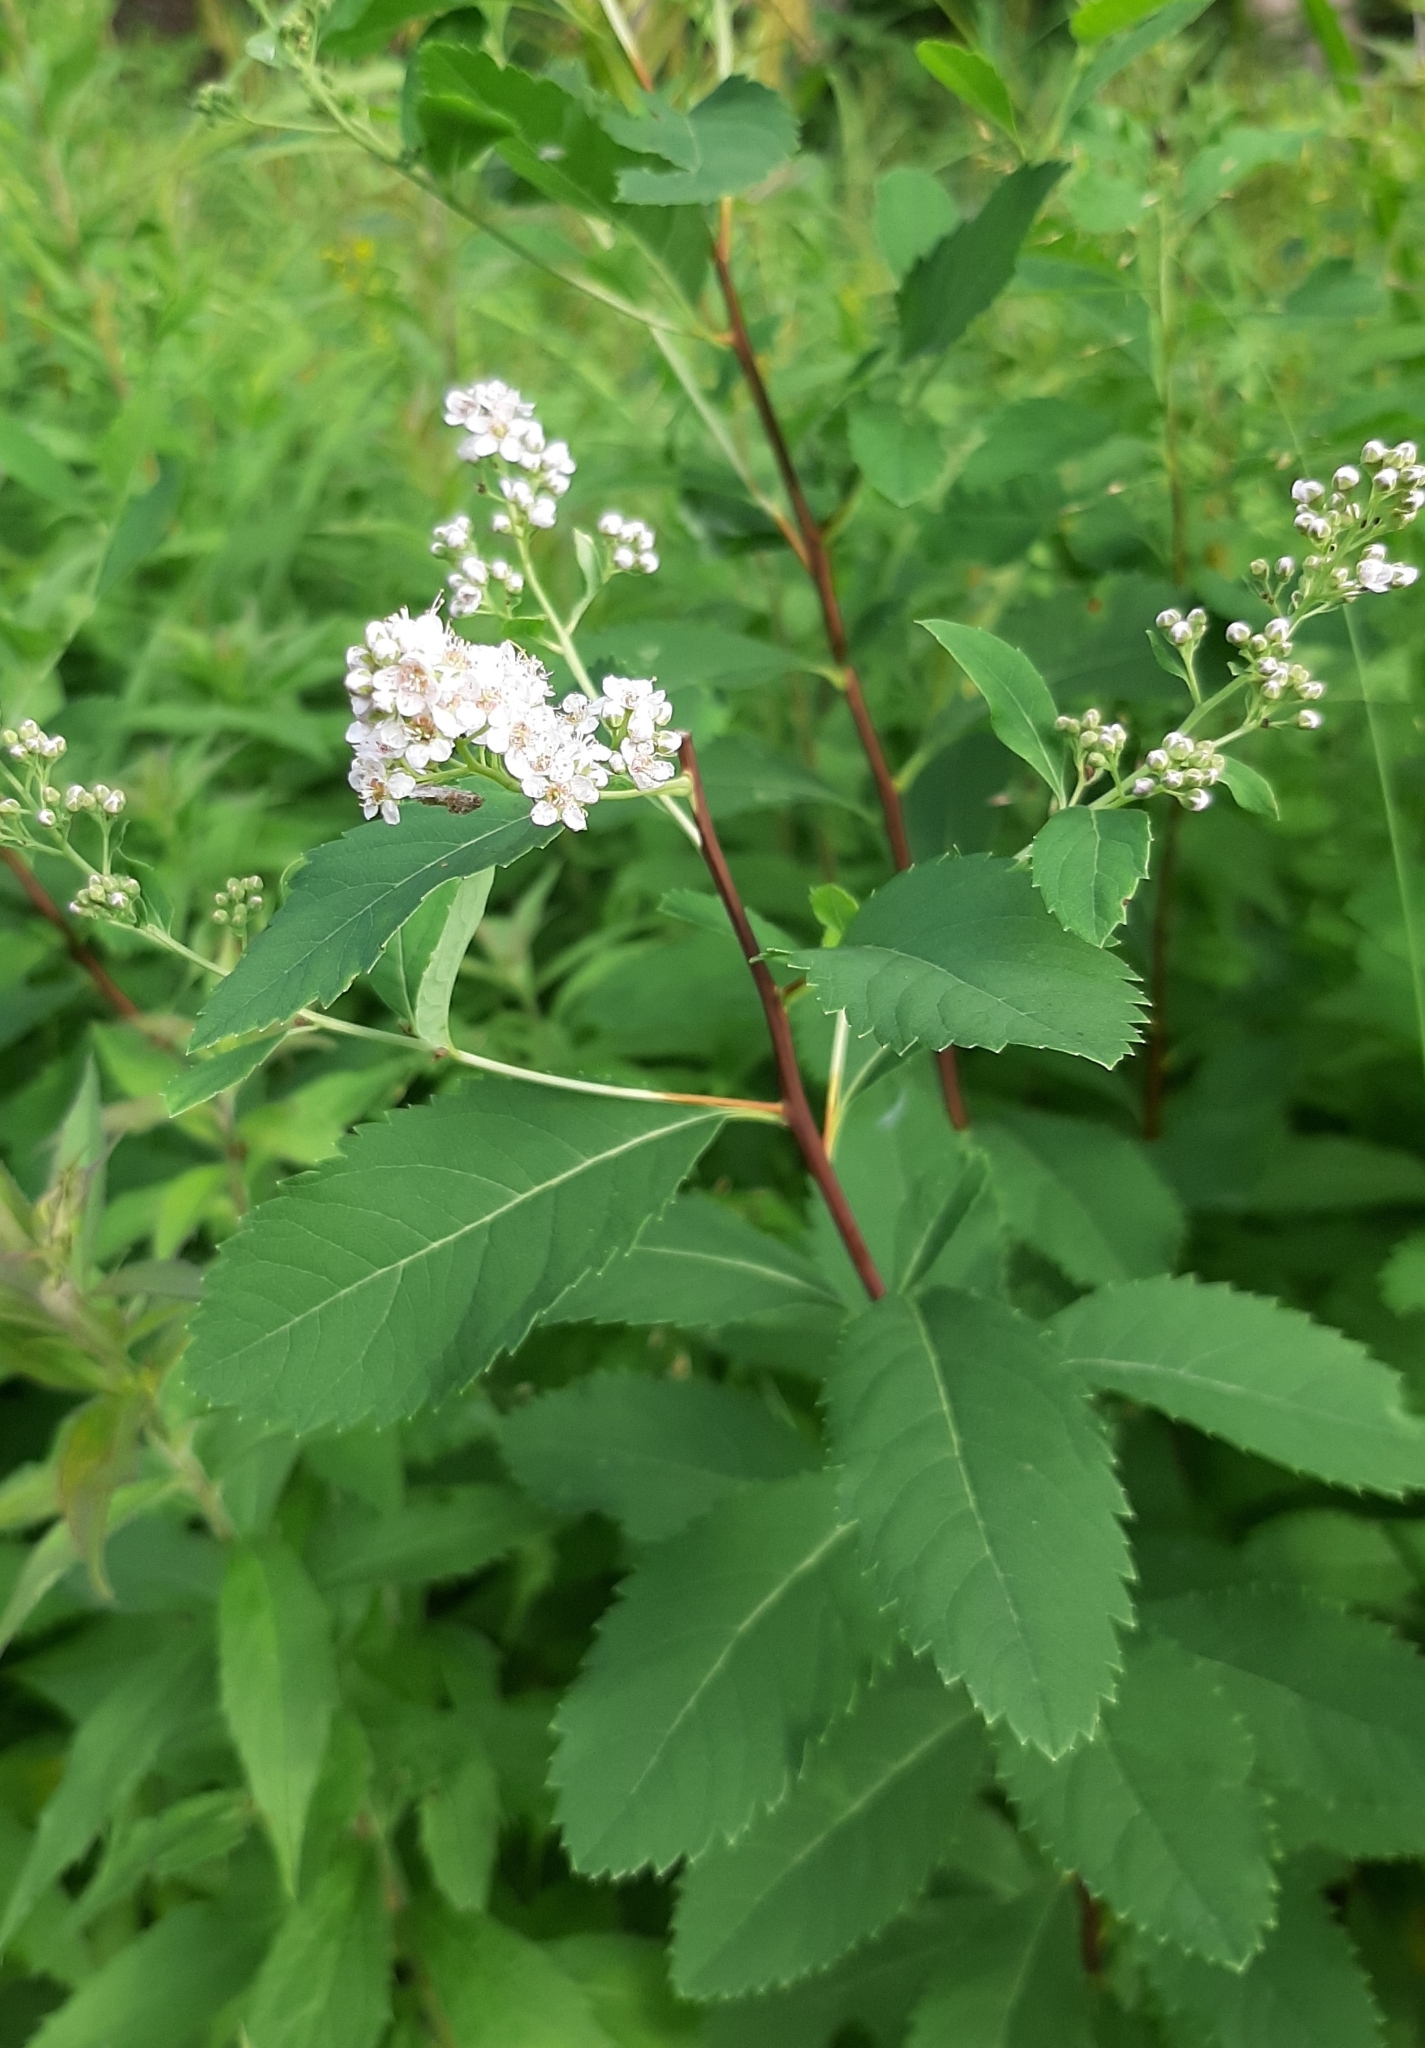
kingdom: Plantae
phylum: Tracheophyta
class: Magnoliopsida
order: Rosales
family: Rosaceae
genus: Spiraea
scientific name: Spiraea alba
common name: Pale bridewort
